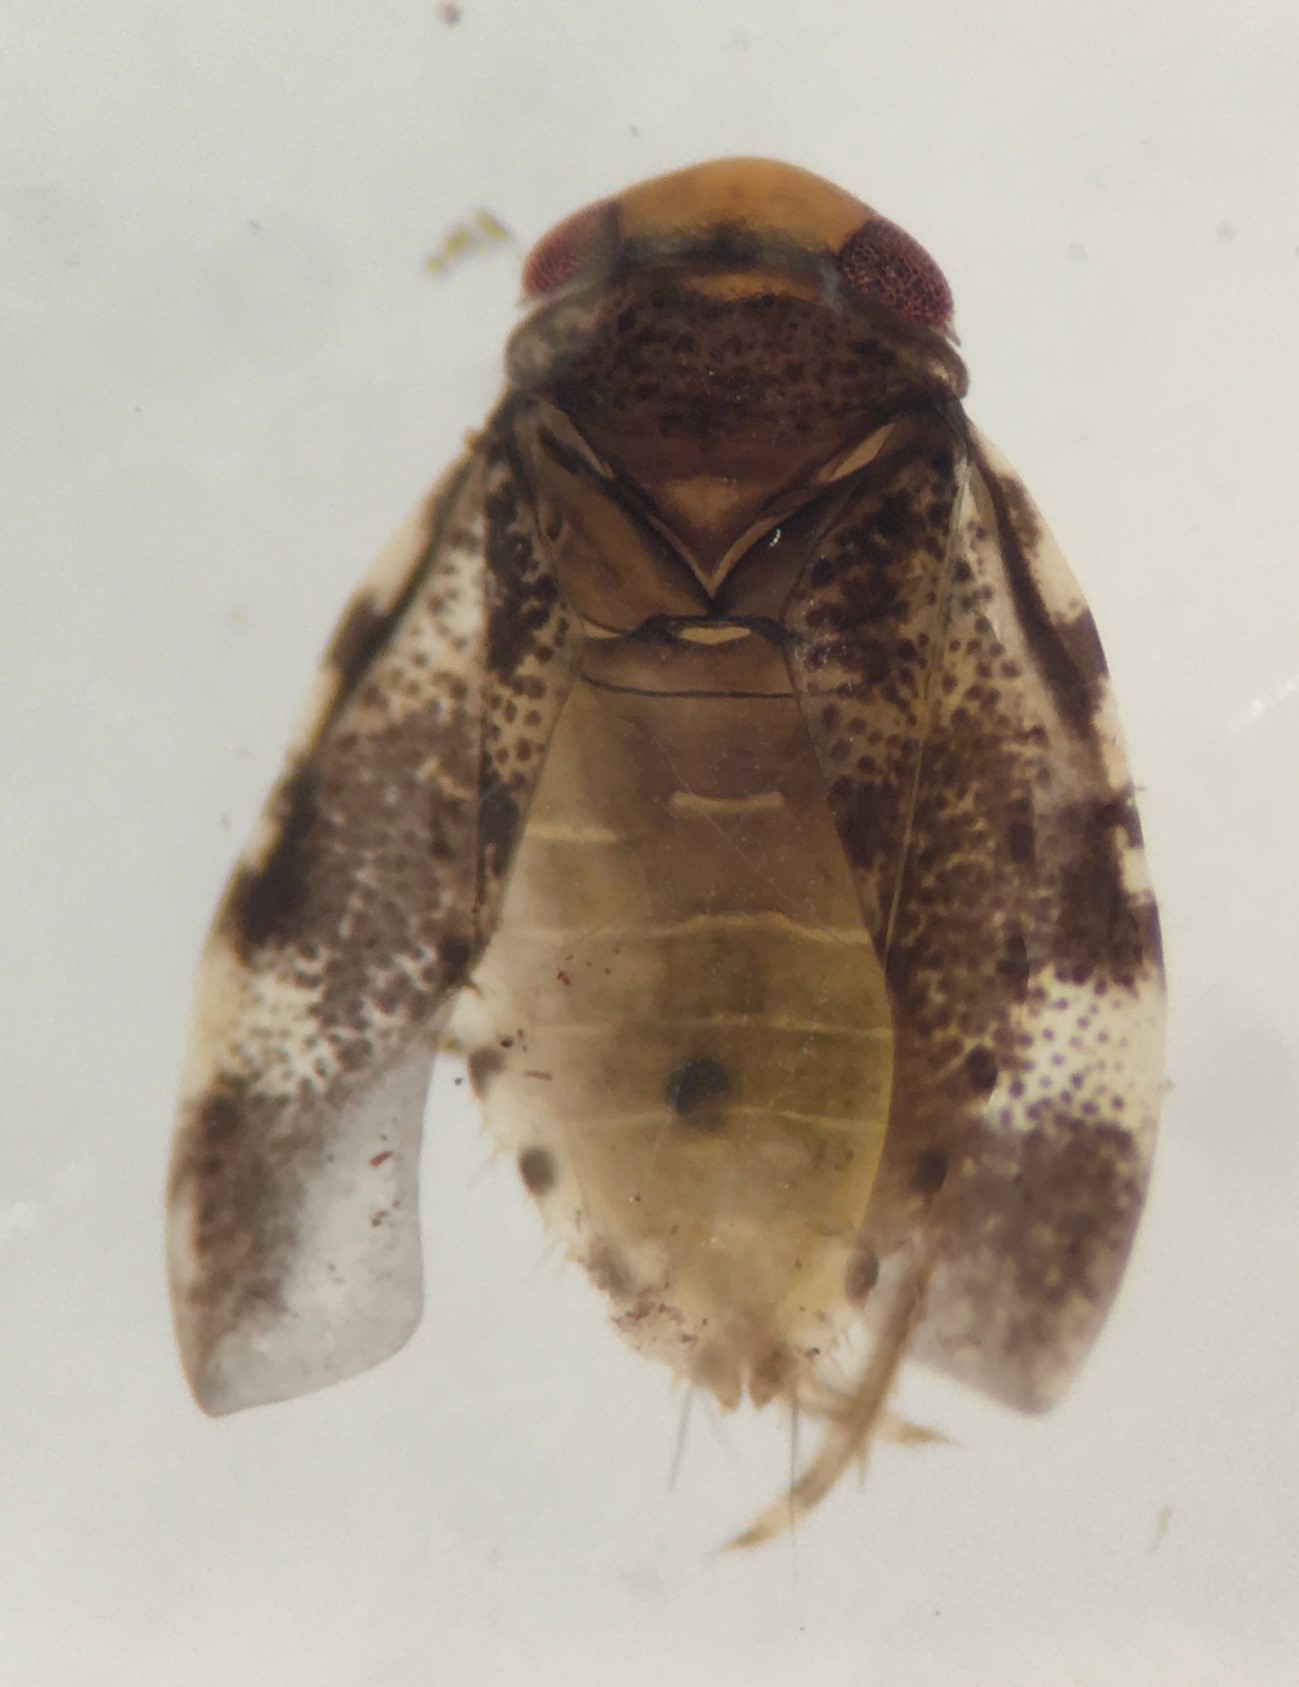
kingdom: Animalia
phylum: Arthropoda
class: Insecta
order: Hemiptera
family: Micronectidae
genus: Synaptonecta
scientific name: Synaptonecta issa
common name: Asian corixid
